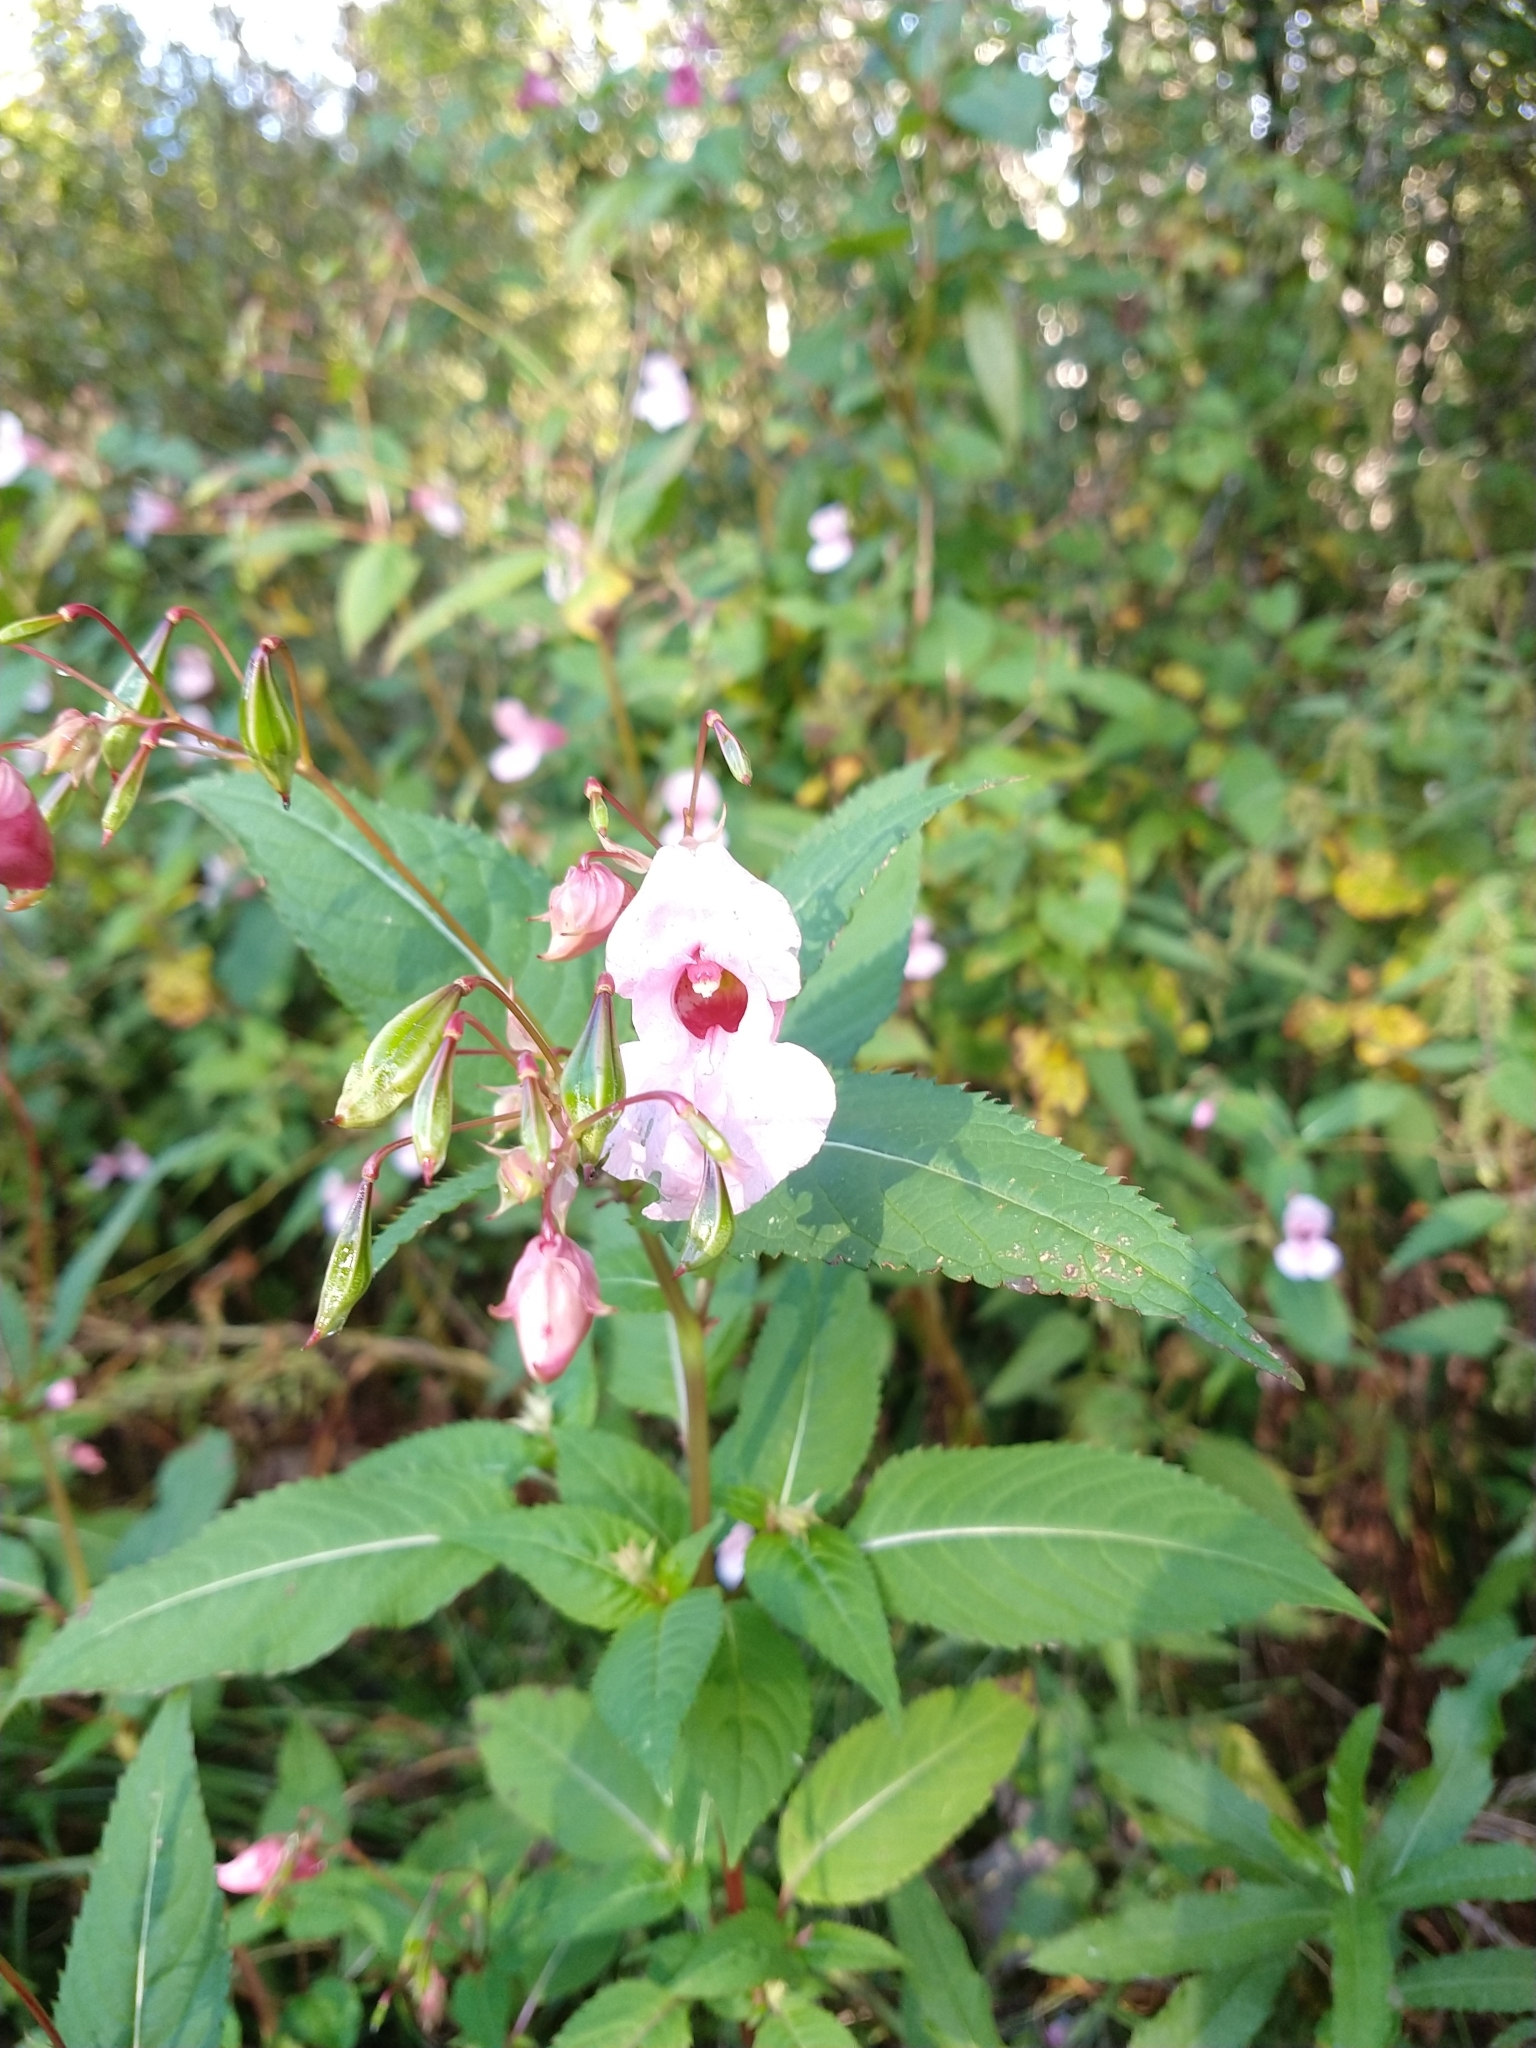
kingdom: Plantae
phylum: Tracheophyta
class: Magnoliopsida
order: Ericales
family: Balsaminaceae
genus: Impatiens
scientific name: Impatiens glandulifera
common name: Himalayan balsam
